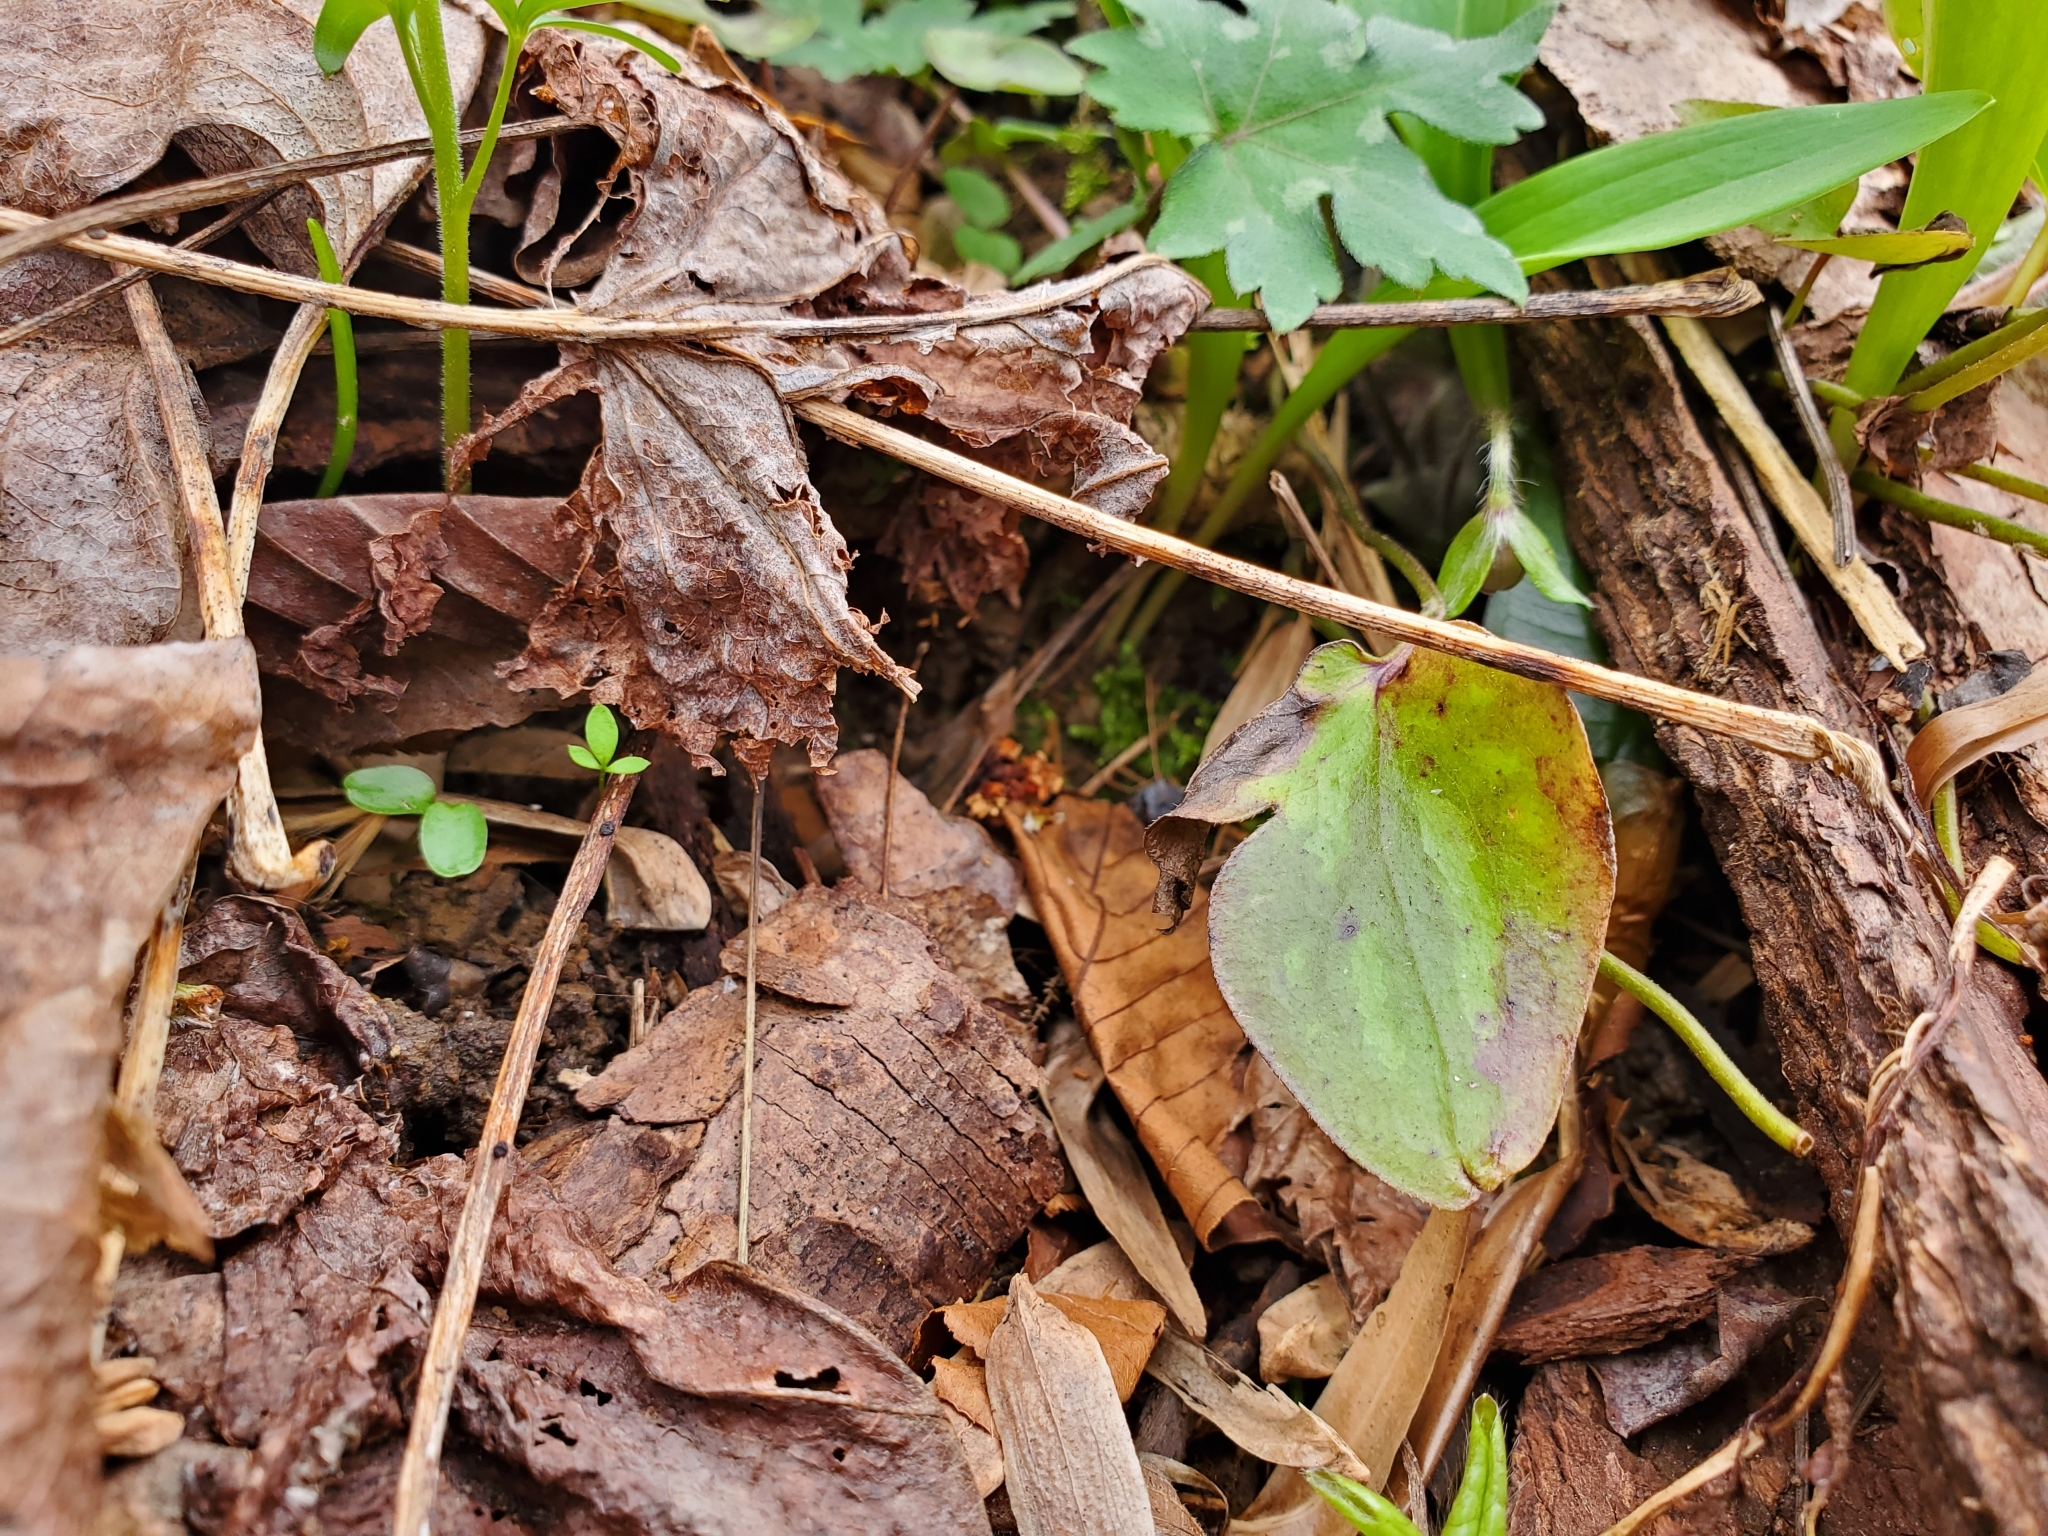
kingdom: Plantae
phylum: Tracheophyta
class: Magnoliopsida
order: Ranunculales
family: Ranunculaceae
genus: Hepatica
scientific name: Hepatica acutiloba
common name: Sharp-lobed hepatica
